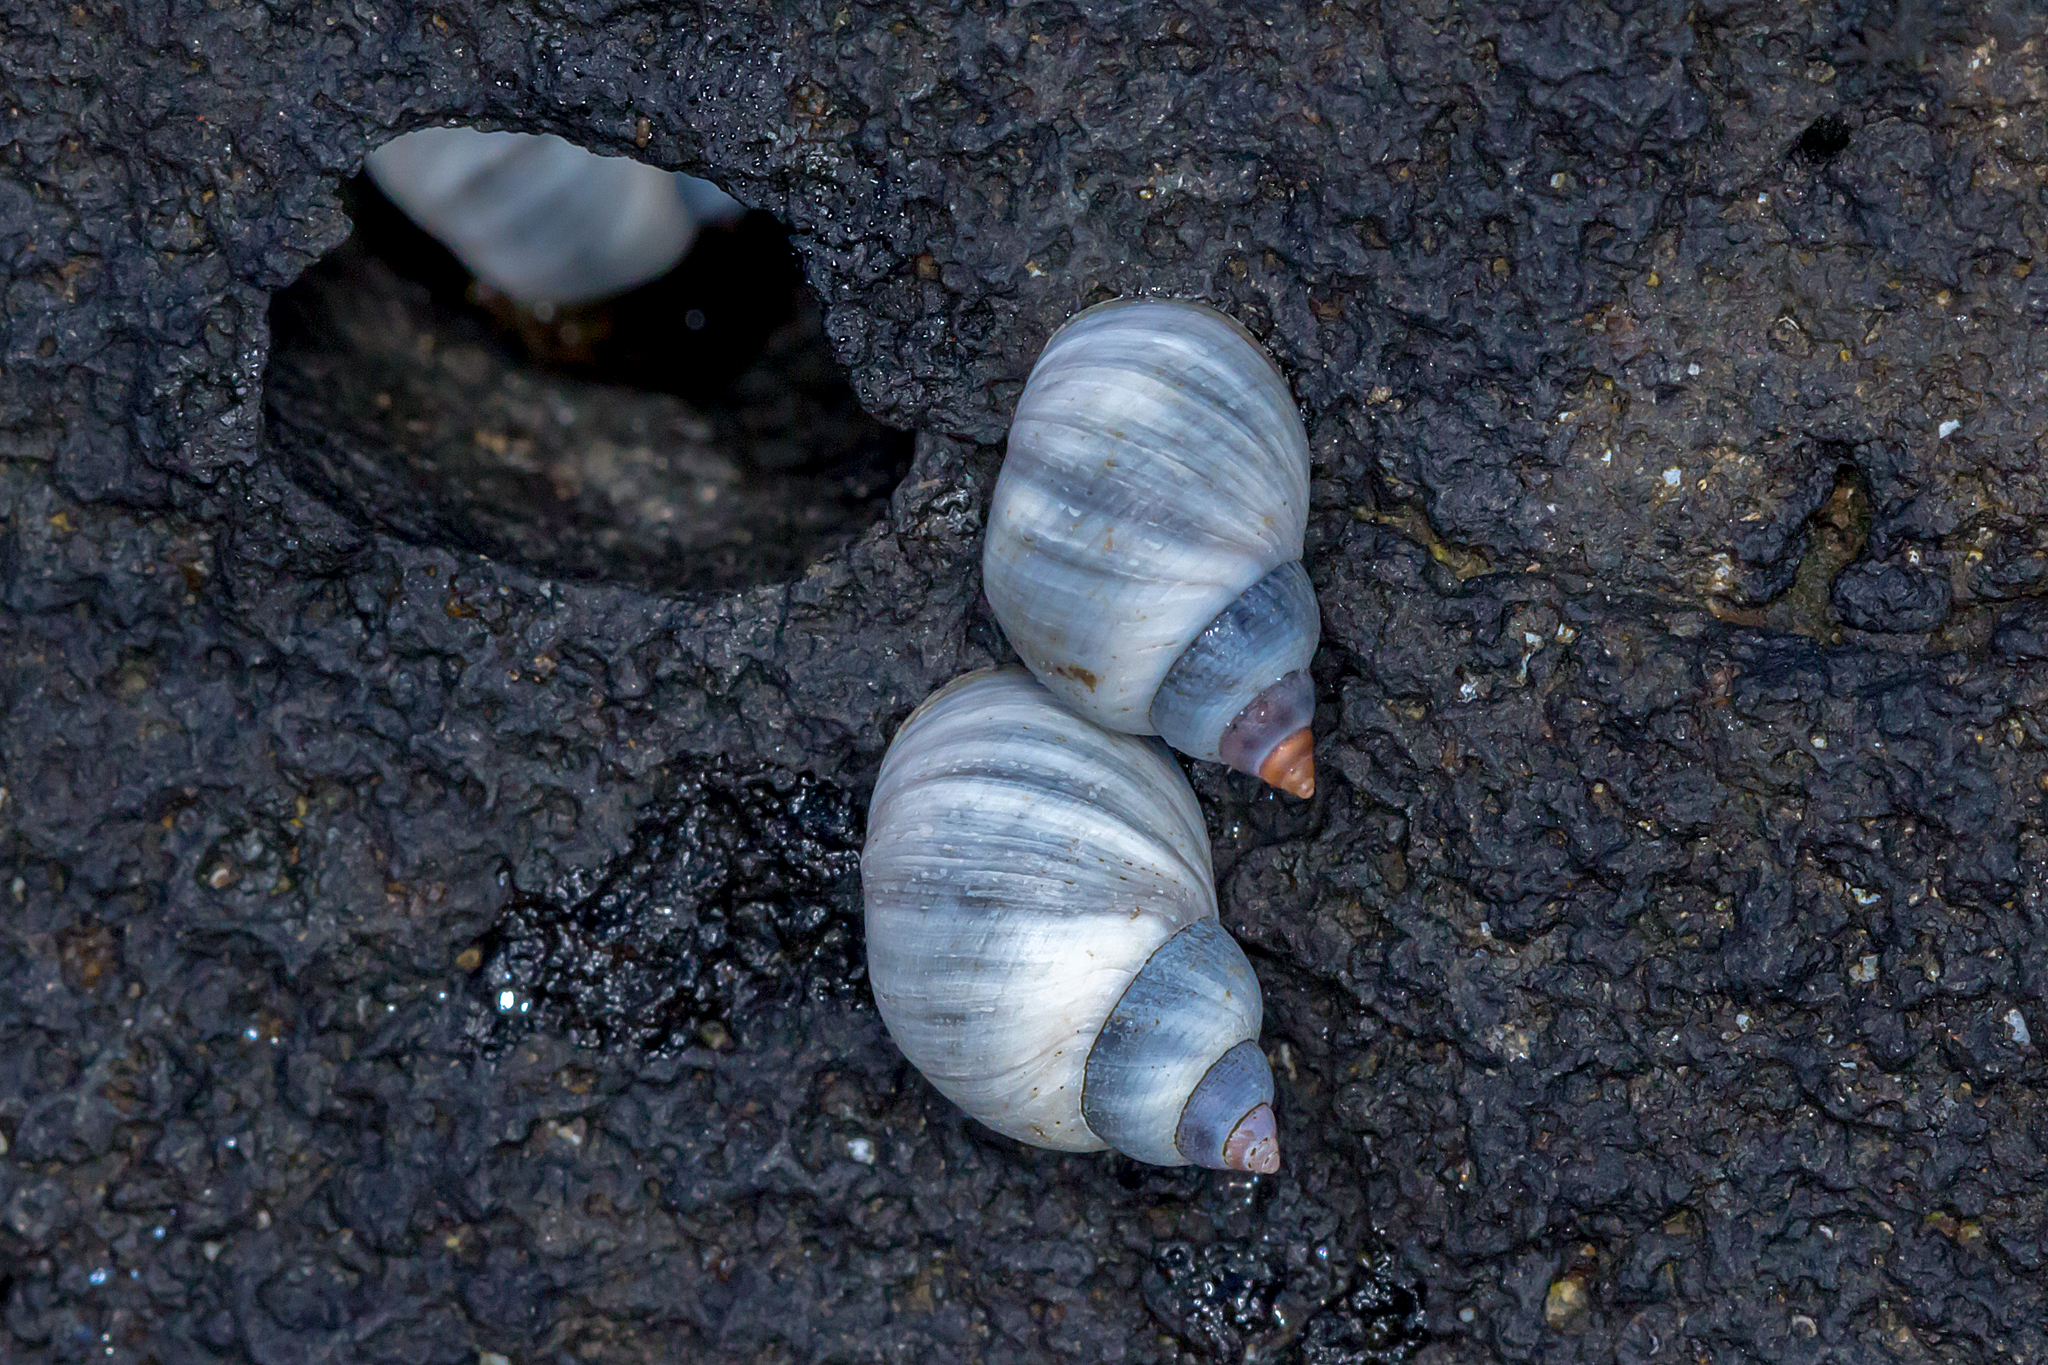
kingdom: Animalia
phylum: Mollusca
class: Gastropoda
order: Littorinimorpha
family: Littorinidae
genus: Austrolittorina
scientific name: Austrolittorina unifasciata
